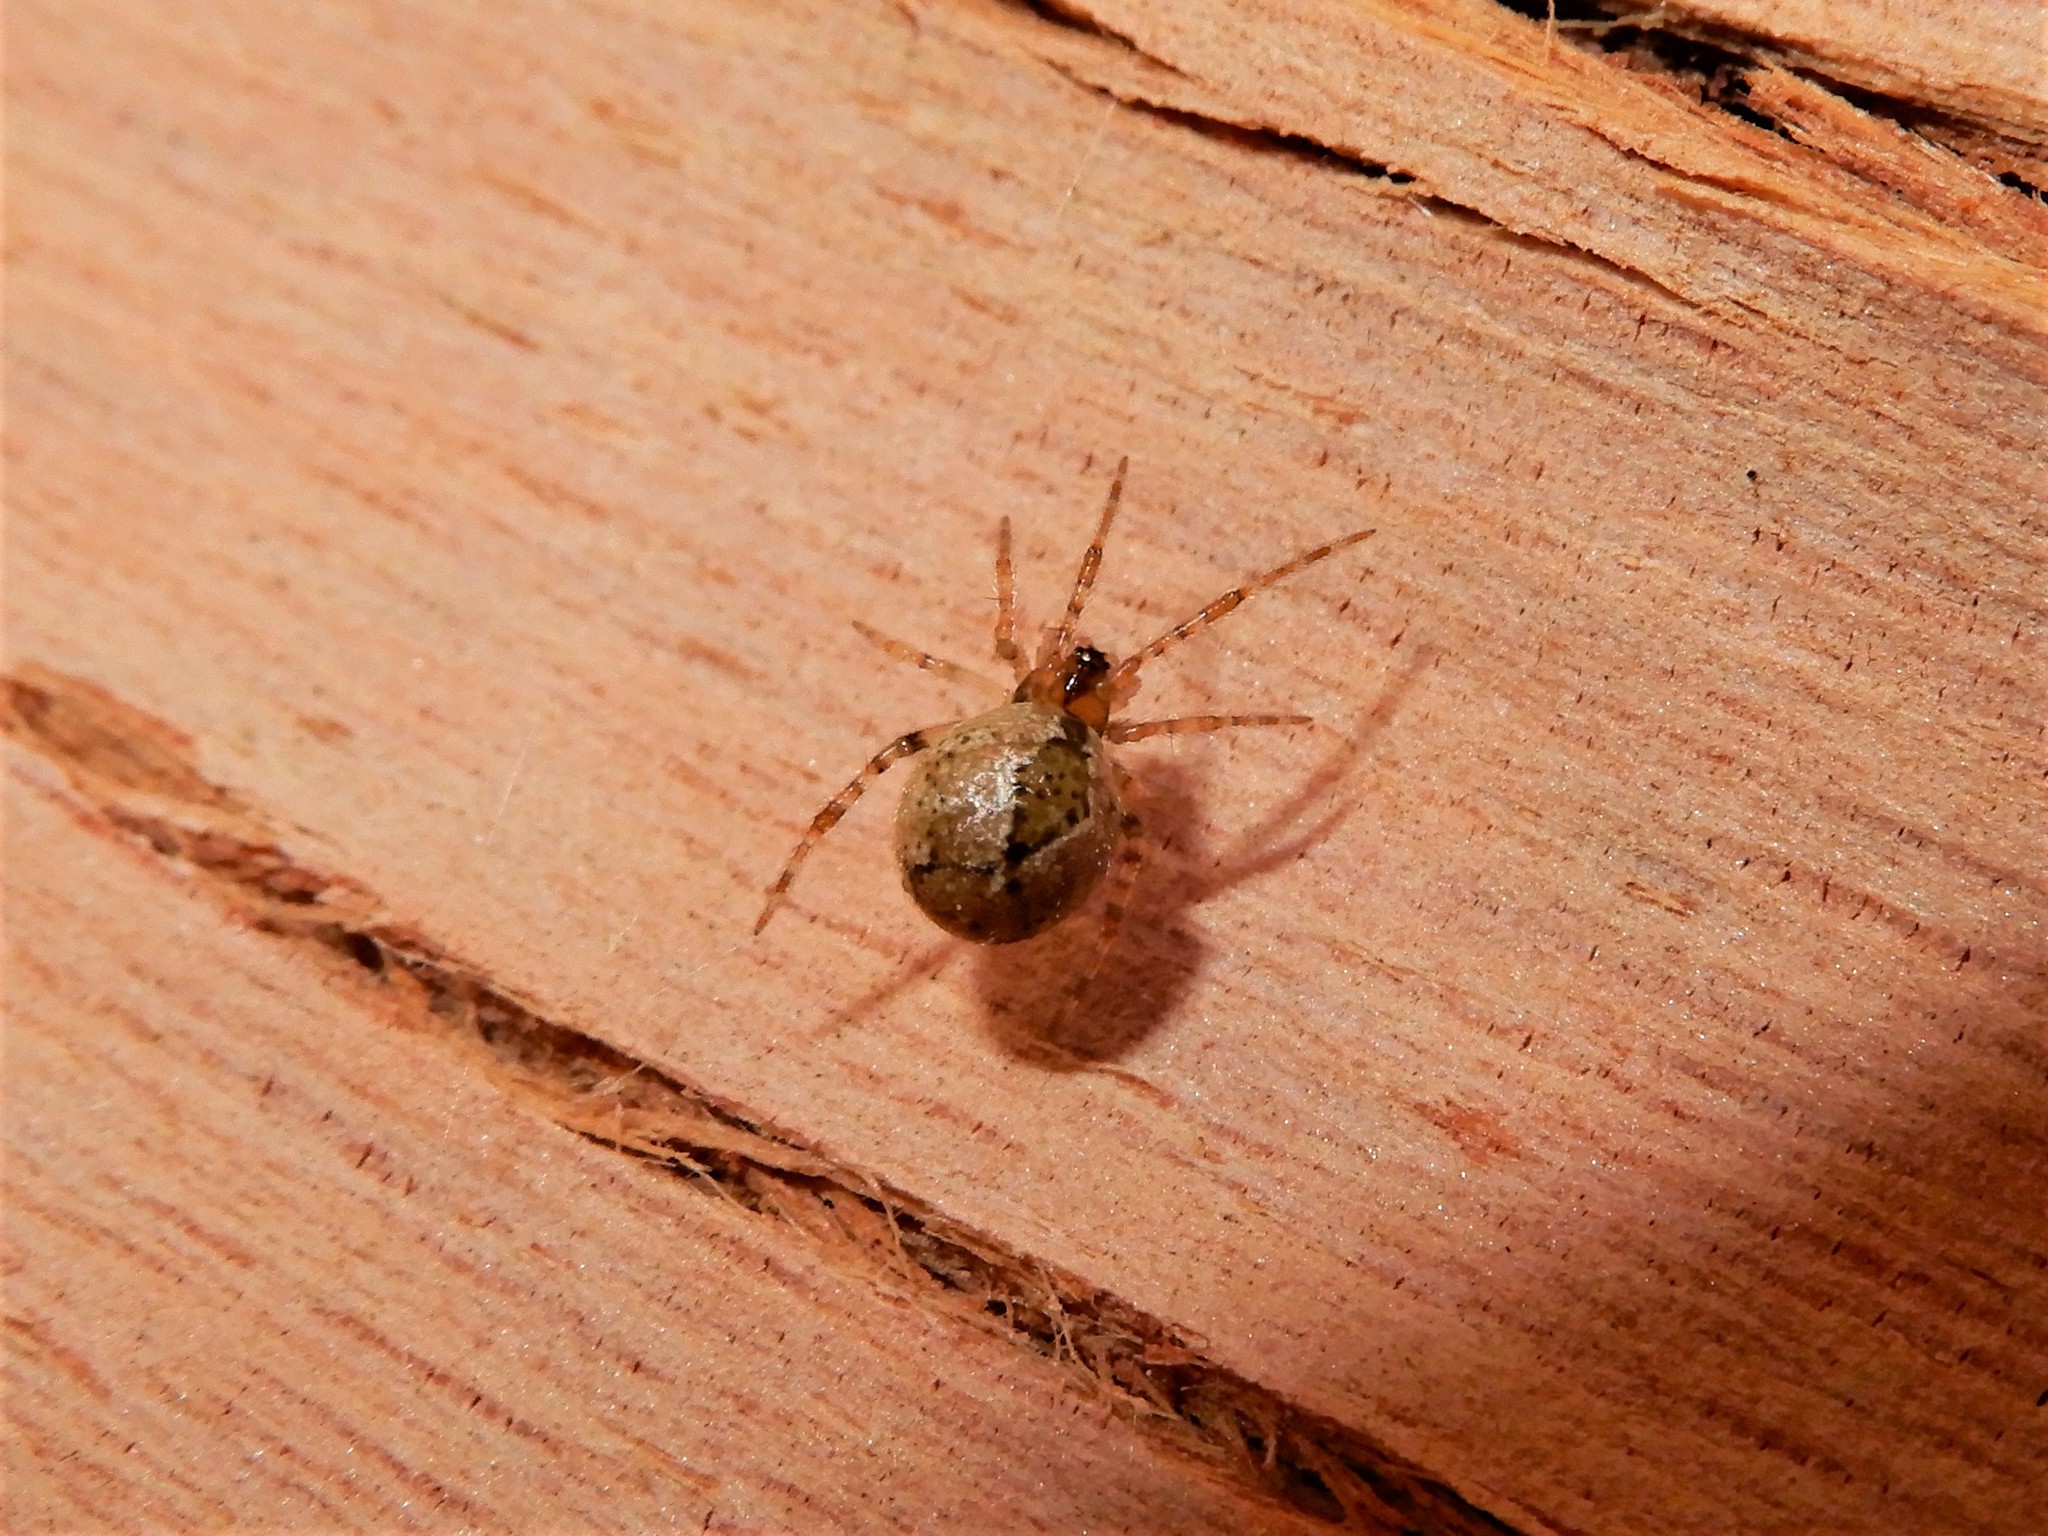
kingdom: Animalia
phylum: Arthropoda
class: Arachnida
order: Araneae
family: Theridiidae
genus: Cryptachaea
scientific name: Cryptachaea veruculata
